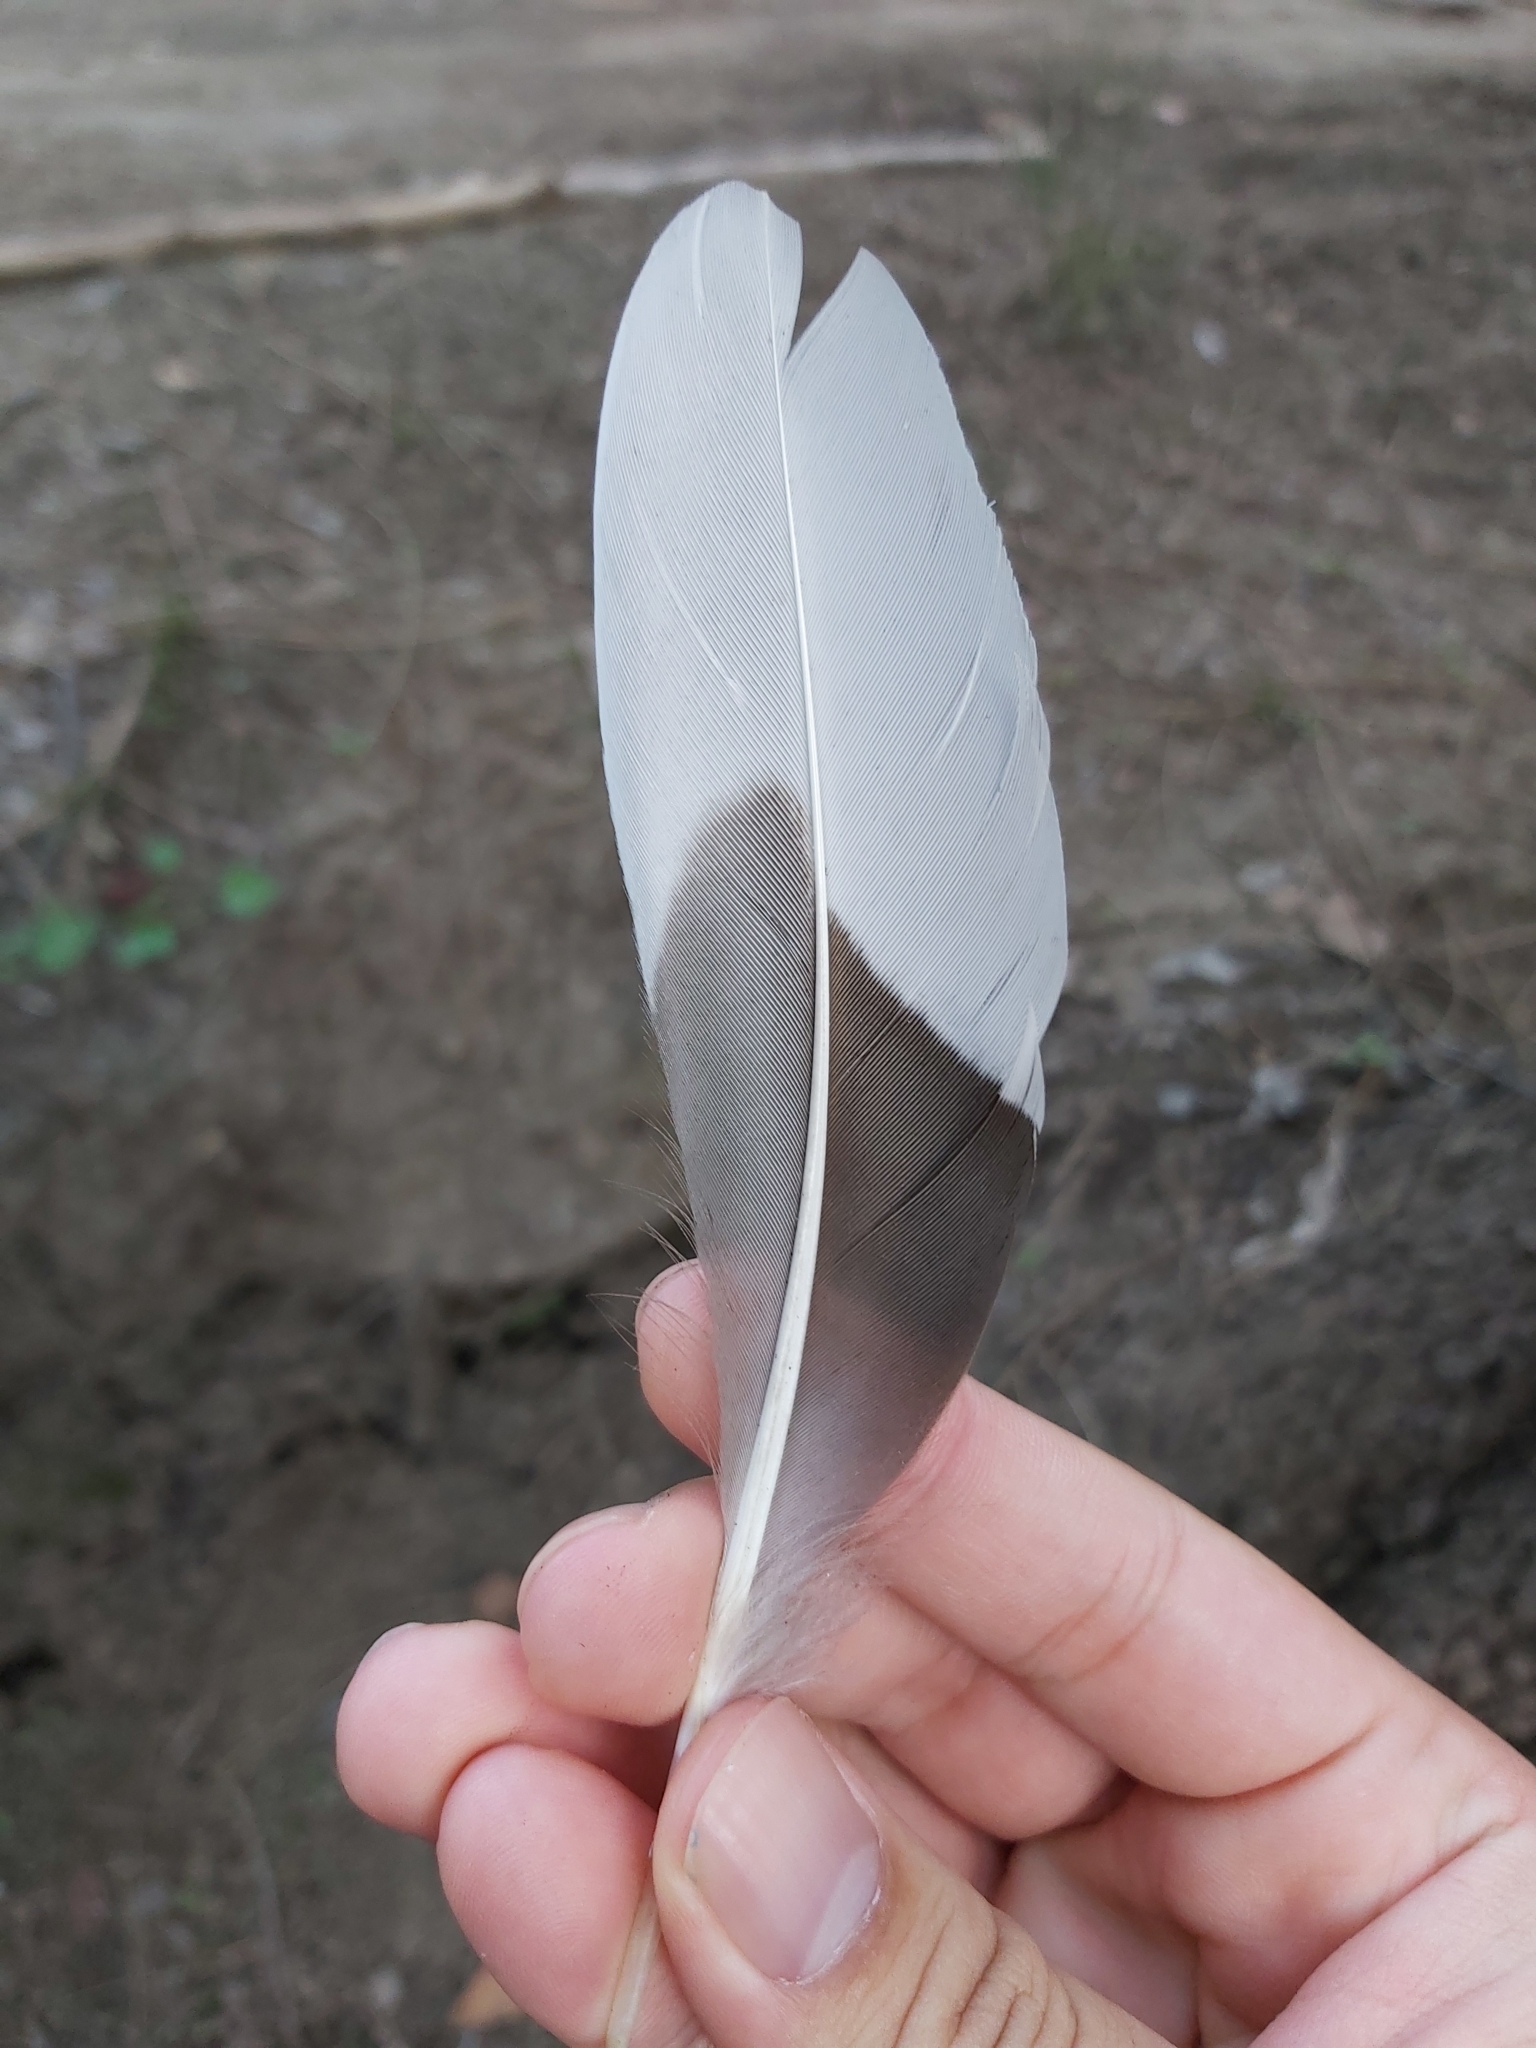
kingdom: Animalia
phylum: Chordata
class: Aves
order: Anseriformes
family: Anatidae
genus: Chenonetta
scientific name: Chenonetta jubata
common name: Maned duck
